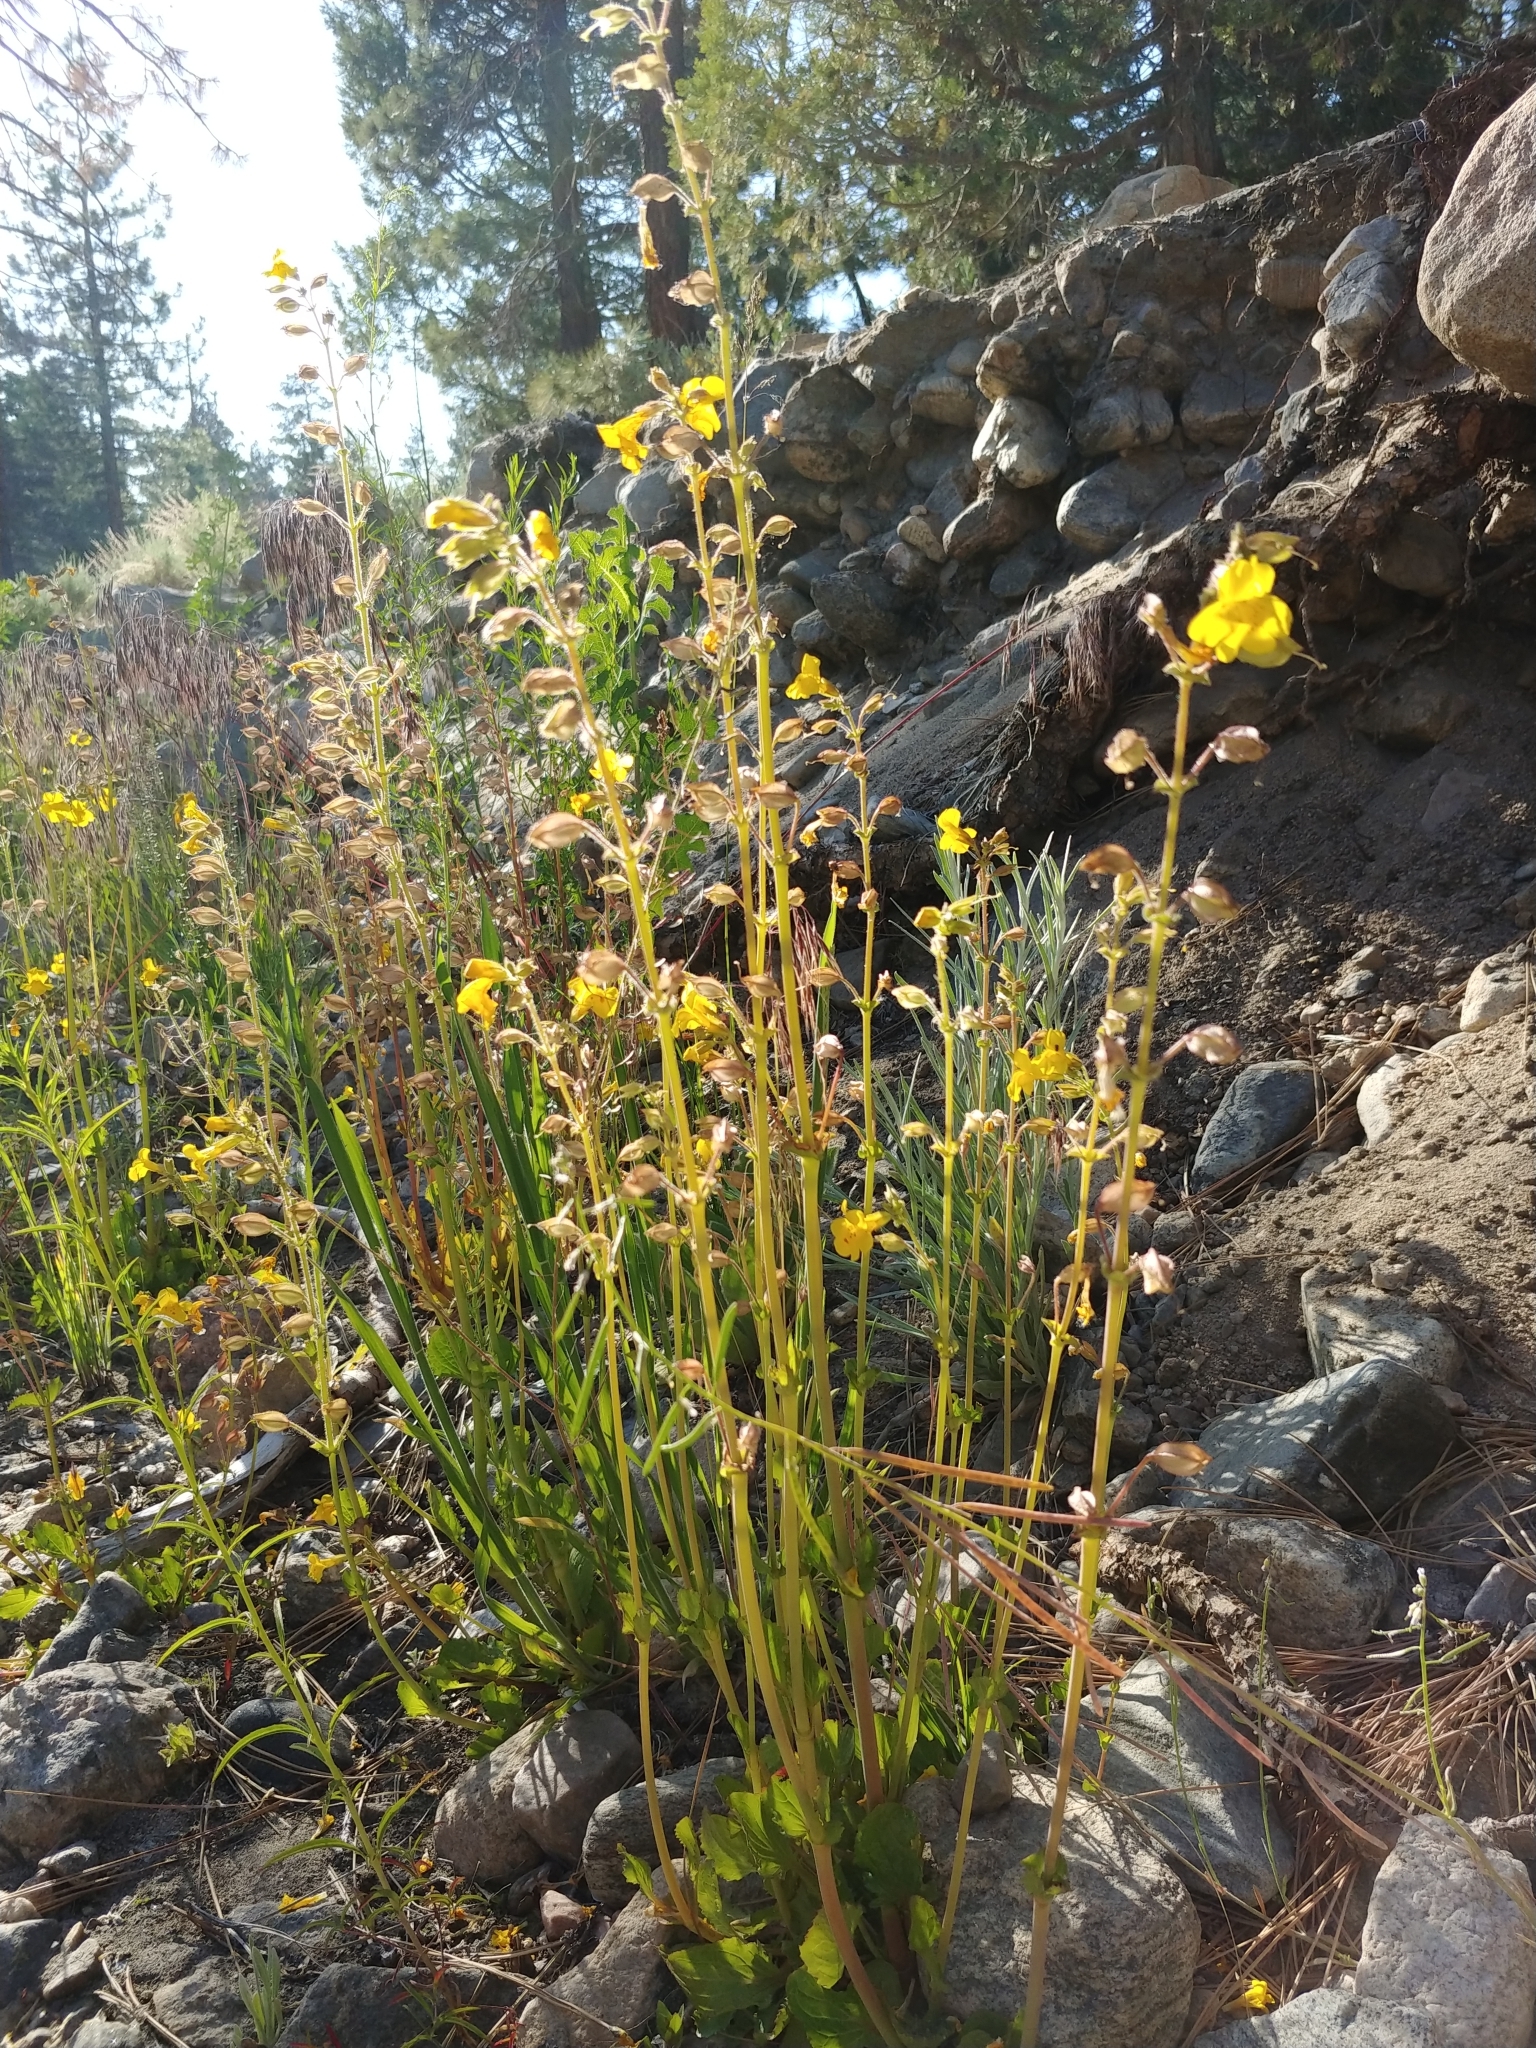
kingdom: Plantae
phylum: Tracheophyta
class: Magnoliopsida
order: Lamiales
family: Phrymaceae
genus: Erythranthe
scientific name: Erythranthe guttata
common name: Monkeyflower
